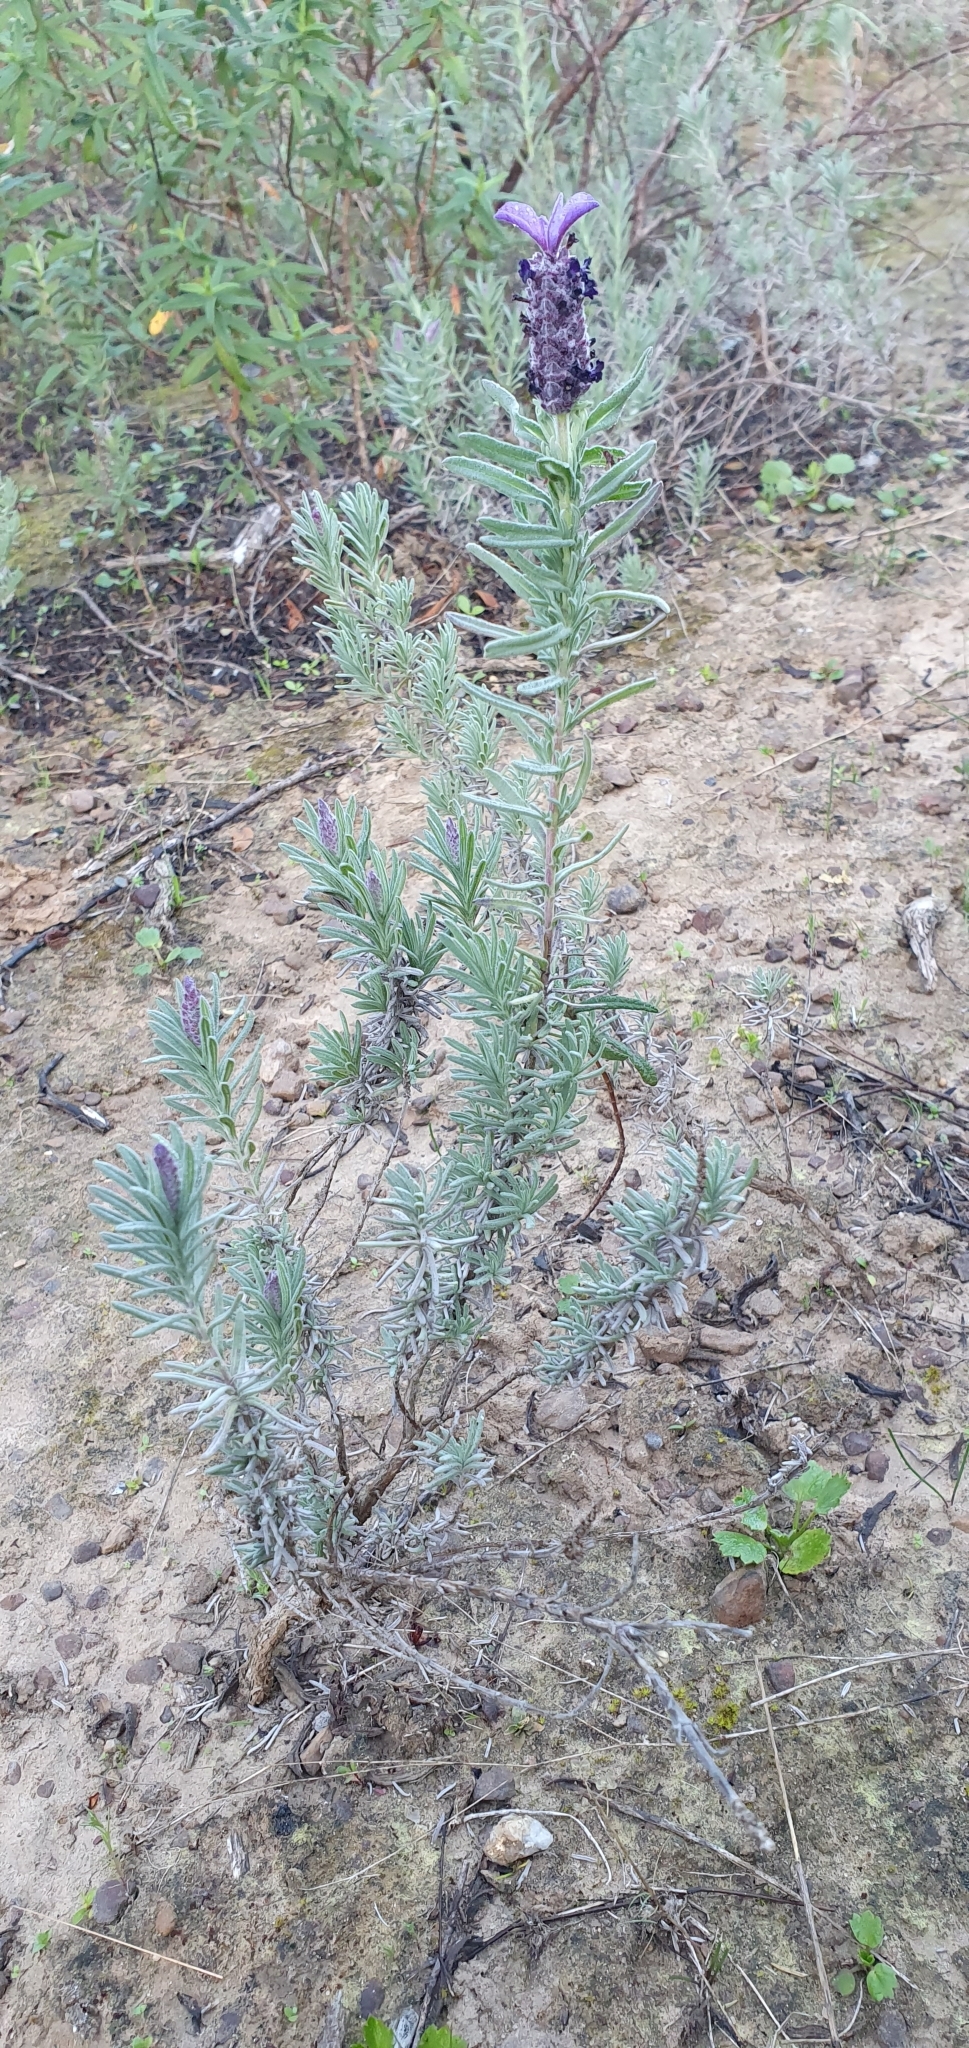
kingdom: Plantae
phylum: Tracheophyta
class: Magnoliopsida
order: Lamiales
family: Lamiaceae
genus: Lavandula
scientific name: Lavandula stoechas
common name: French lavender
